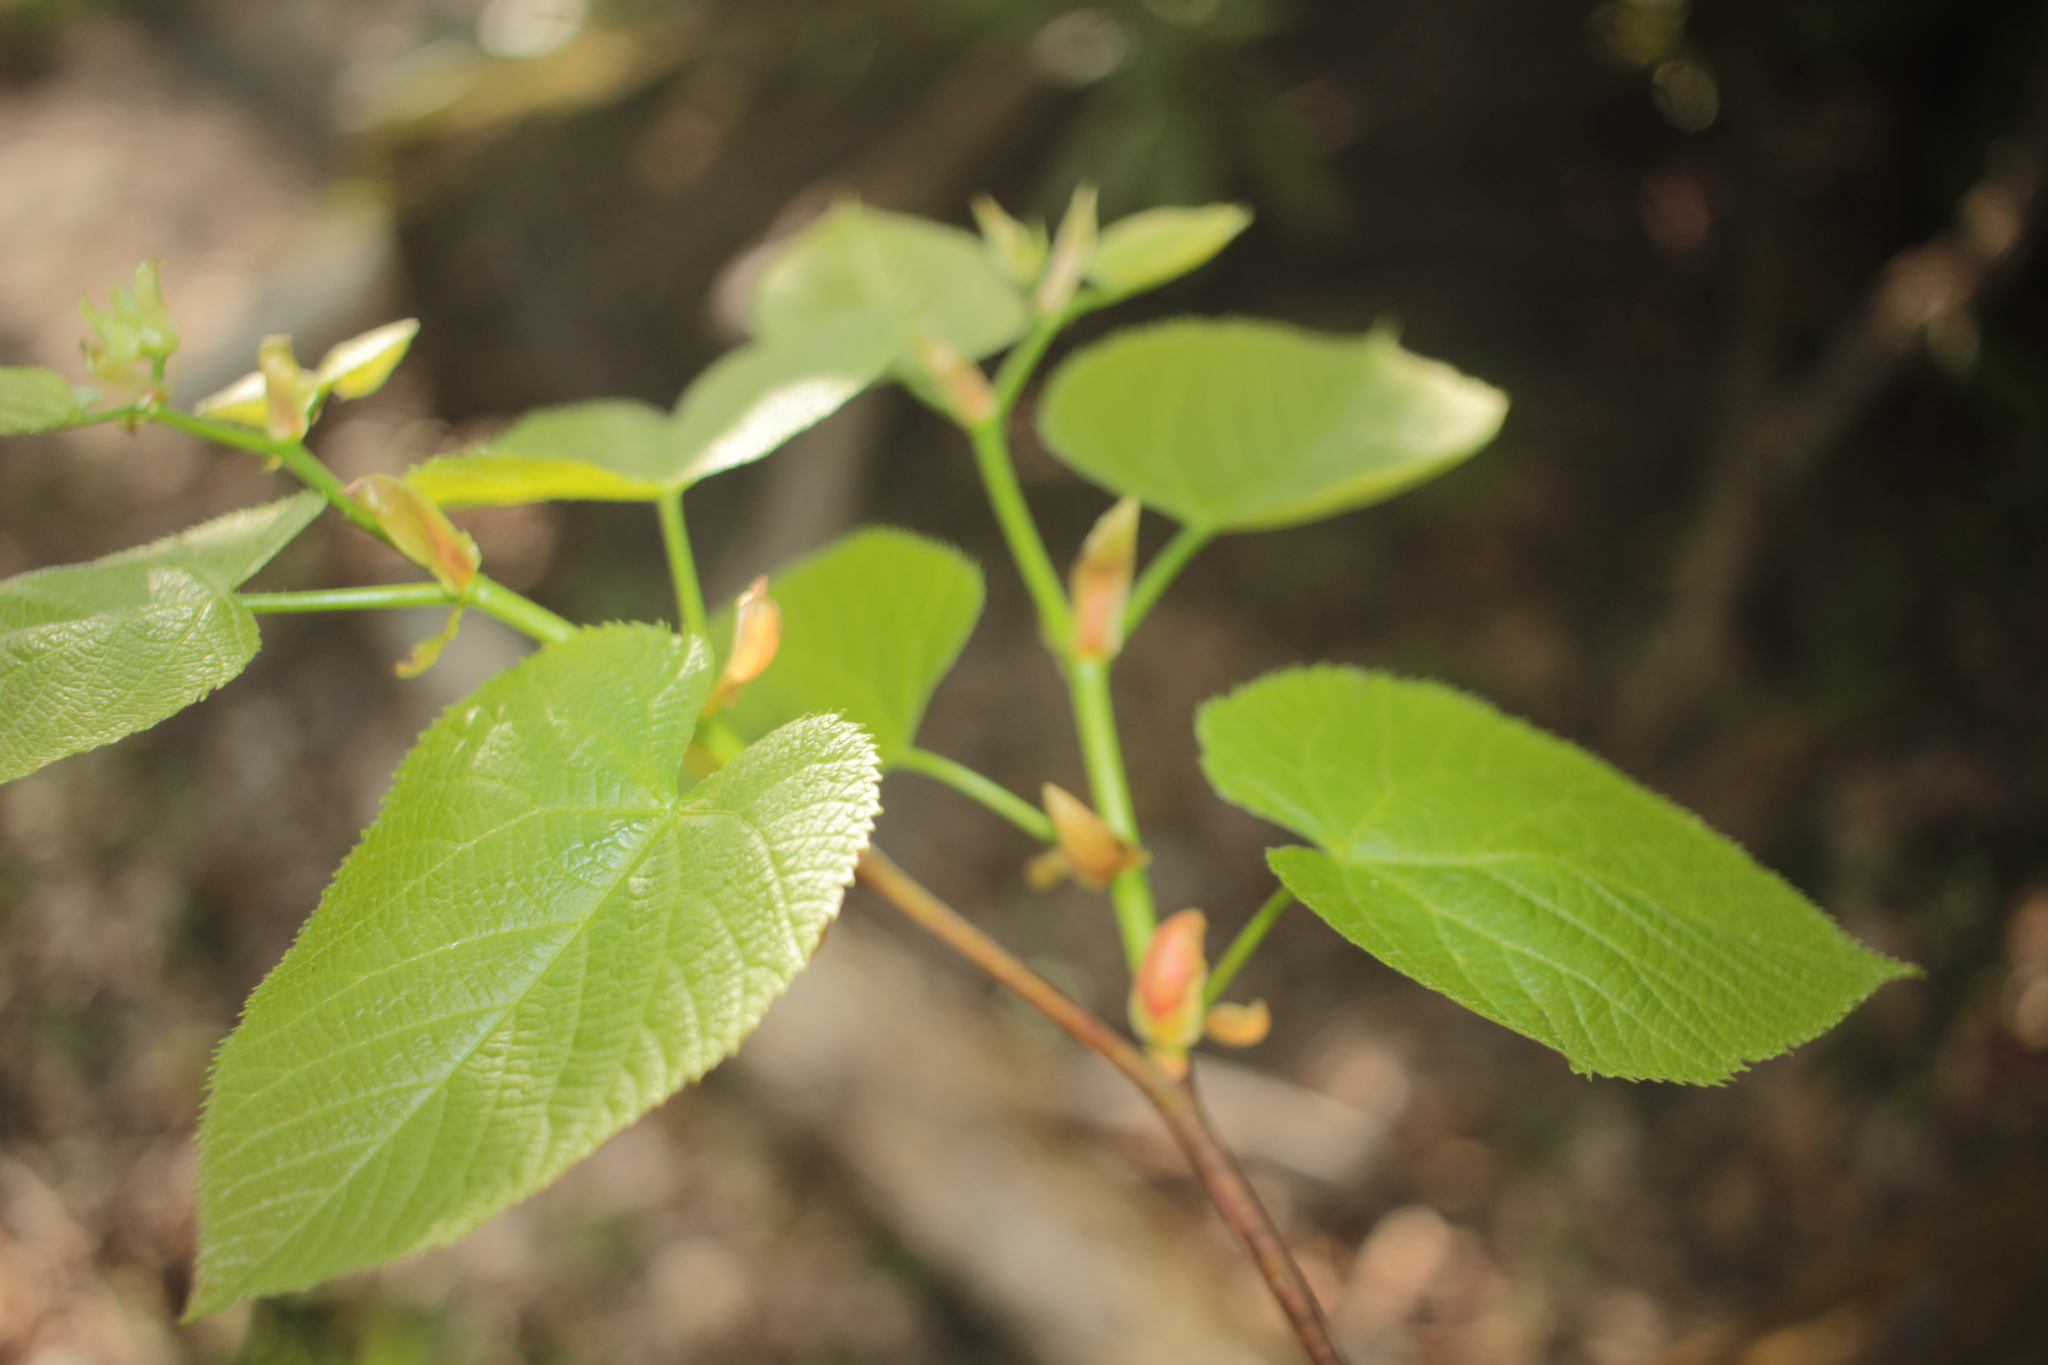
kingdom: Plantae
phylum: Tracheophyta
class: Magnoliopsida
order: Malvales
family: Malvaceae
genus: Tilia
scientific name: Tilia americana
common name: Basswood
